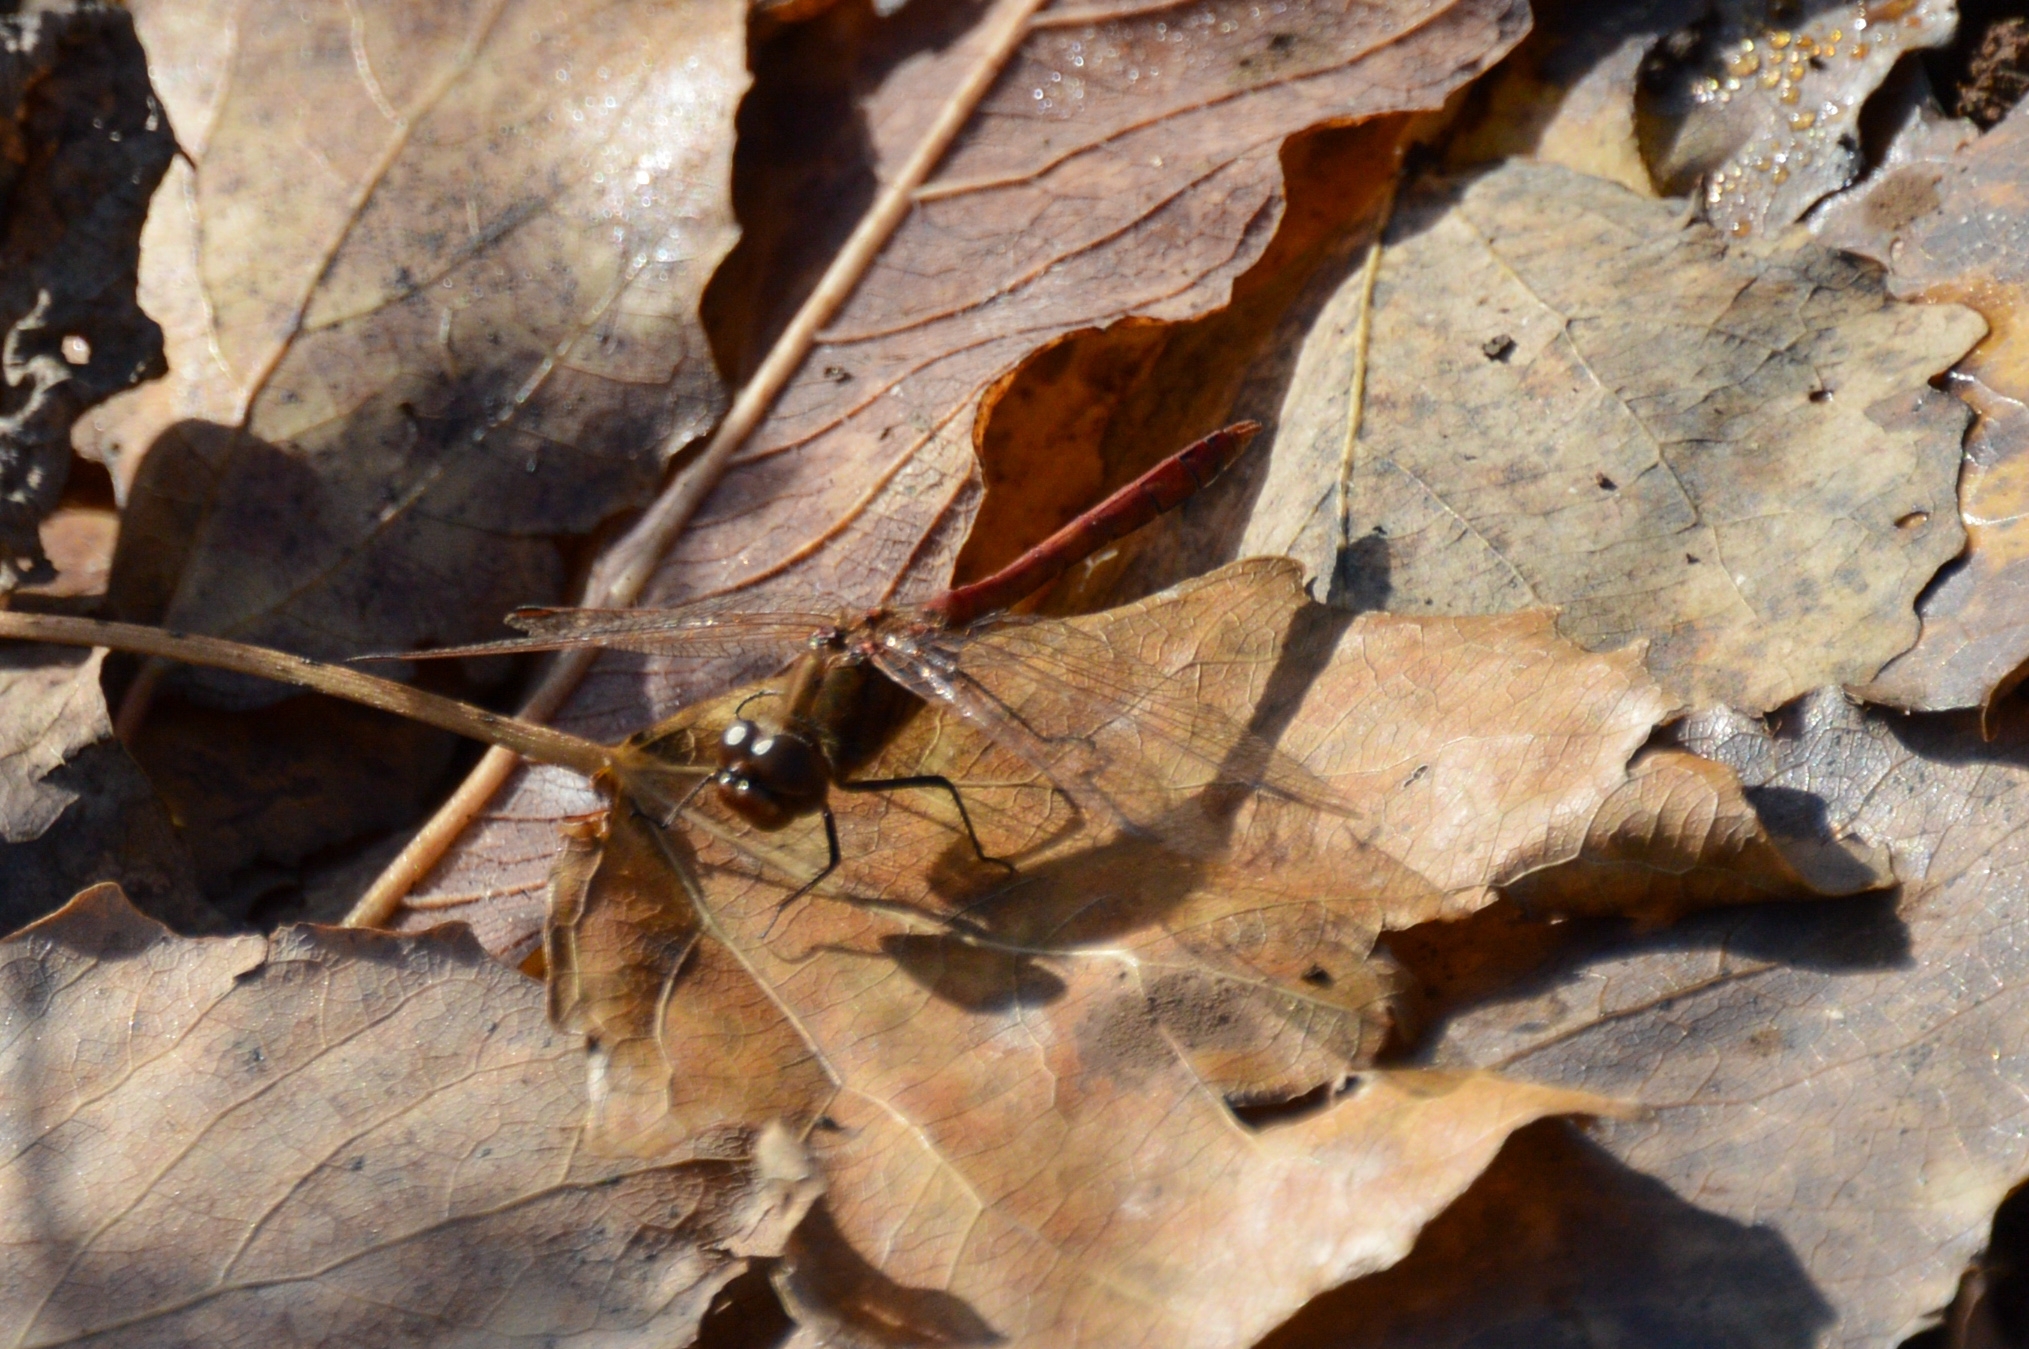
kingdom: Animalia
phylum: Arthropoda
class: Insecta
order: Odonata
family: Libellulidae
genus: Sympetrum
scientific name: Sympetrum vulgatum
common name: Vagrant darter
